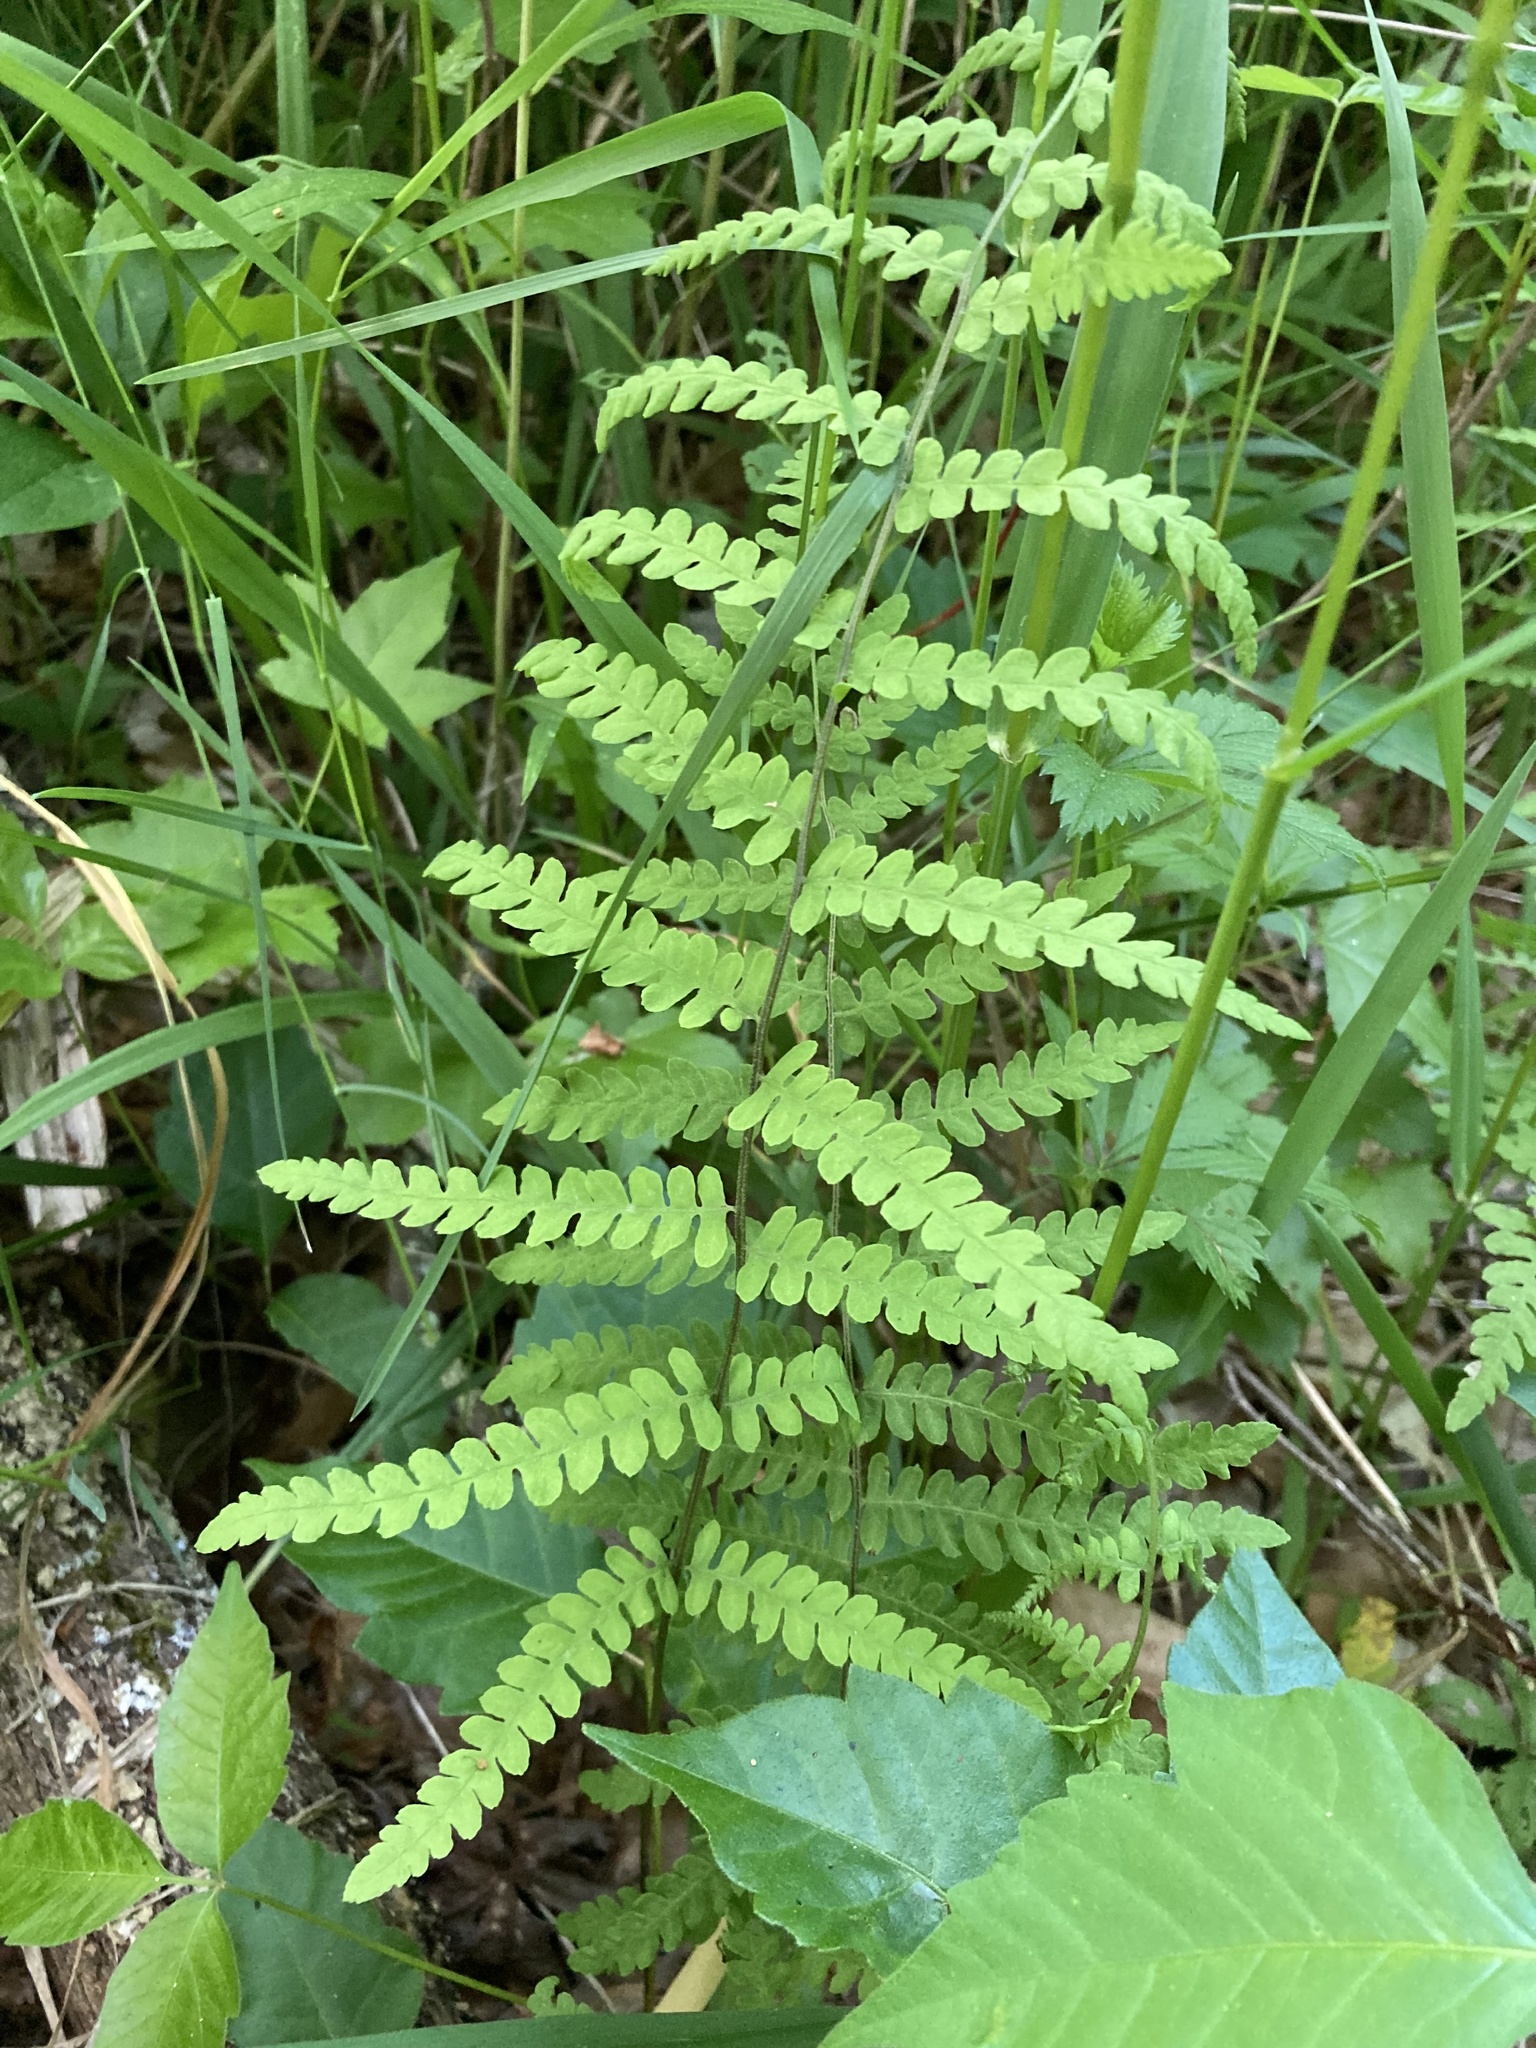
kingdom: Plantae
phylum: Tracheophyta
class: Polypodiopsida
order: Polypodiales
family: Thelypteridaceae
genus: Thelypteris
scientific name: Thelypteris palustris
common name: Marsh fern
